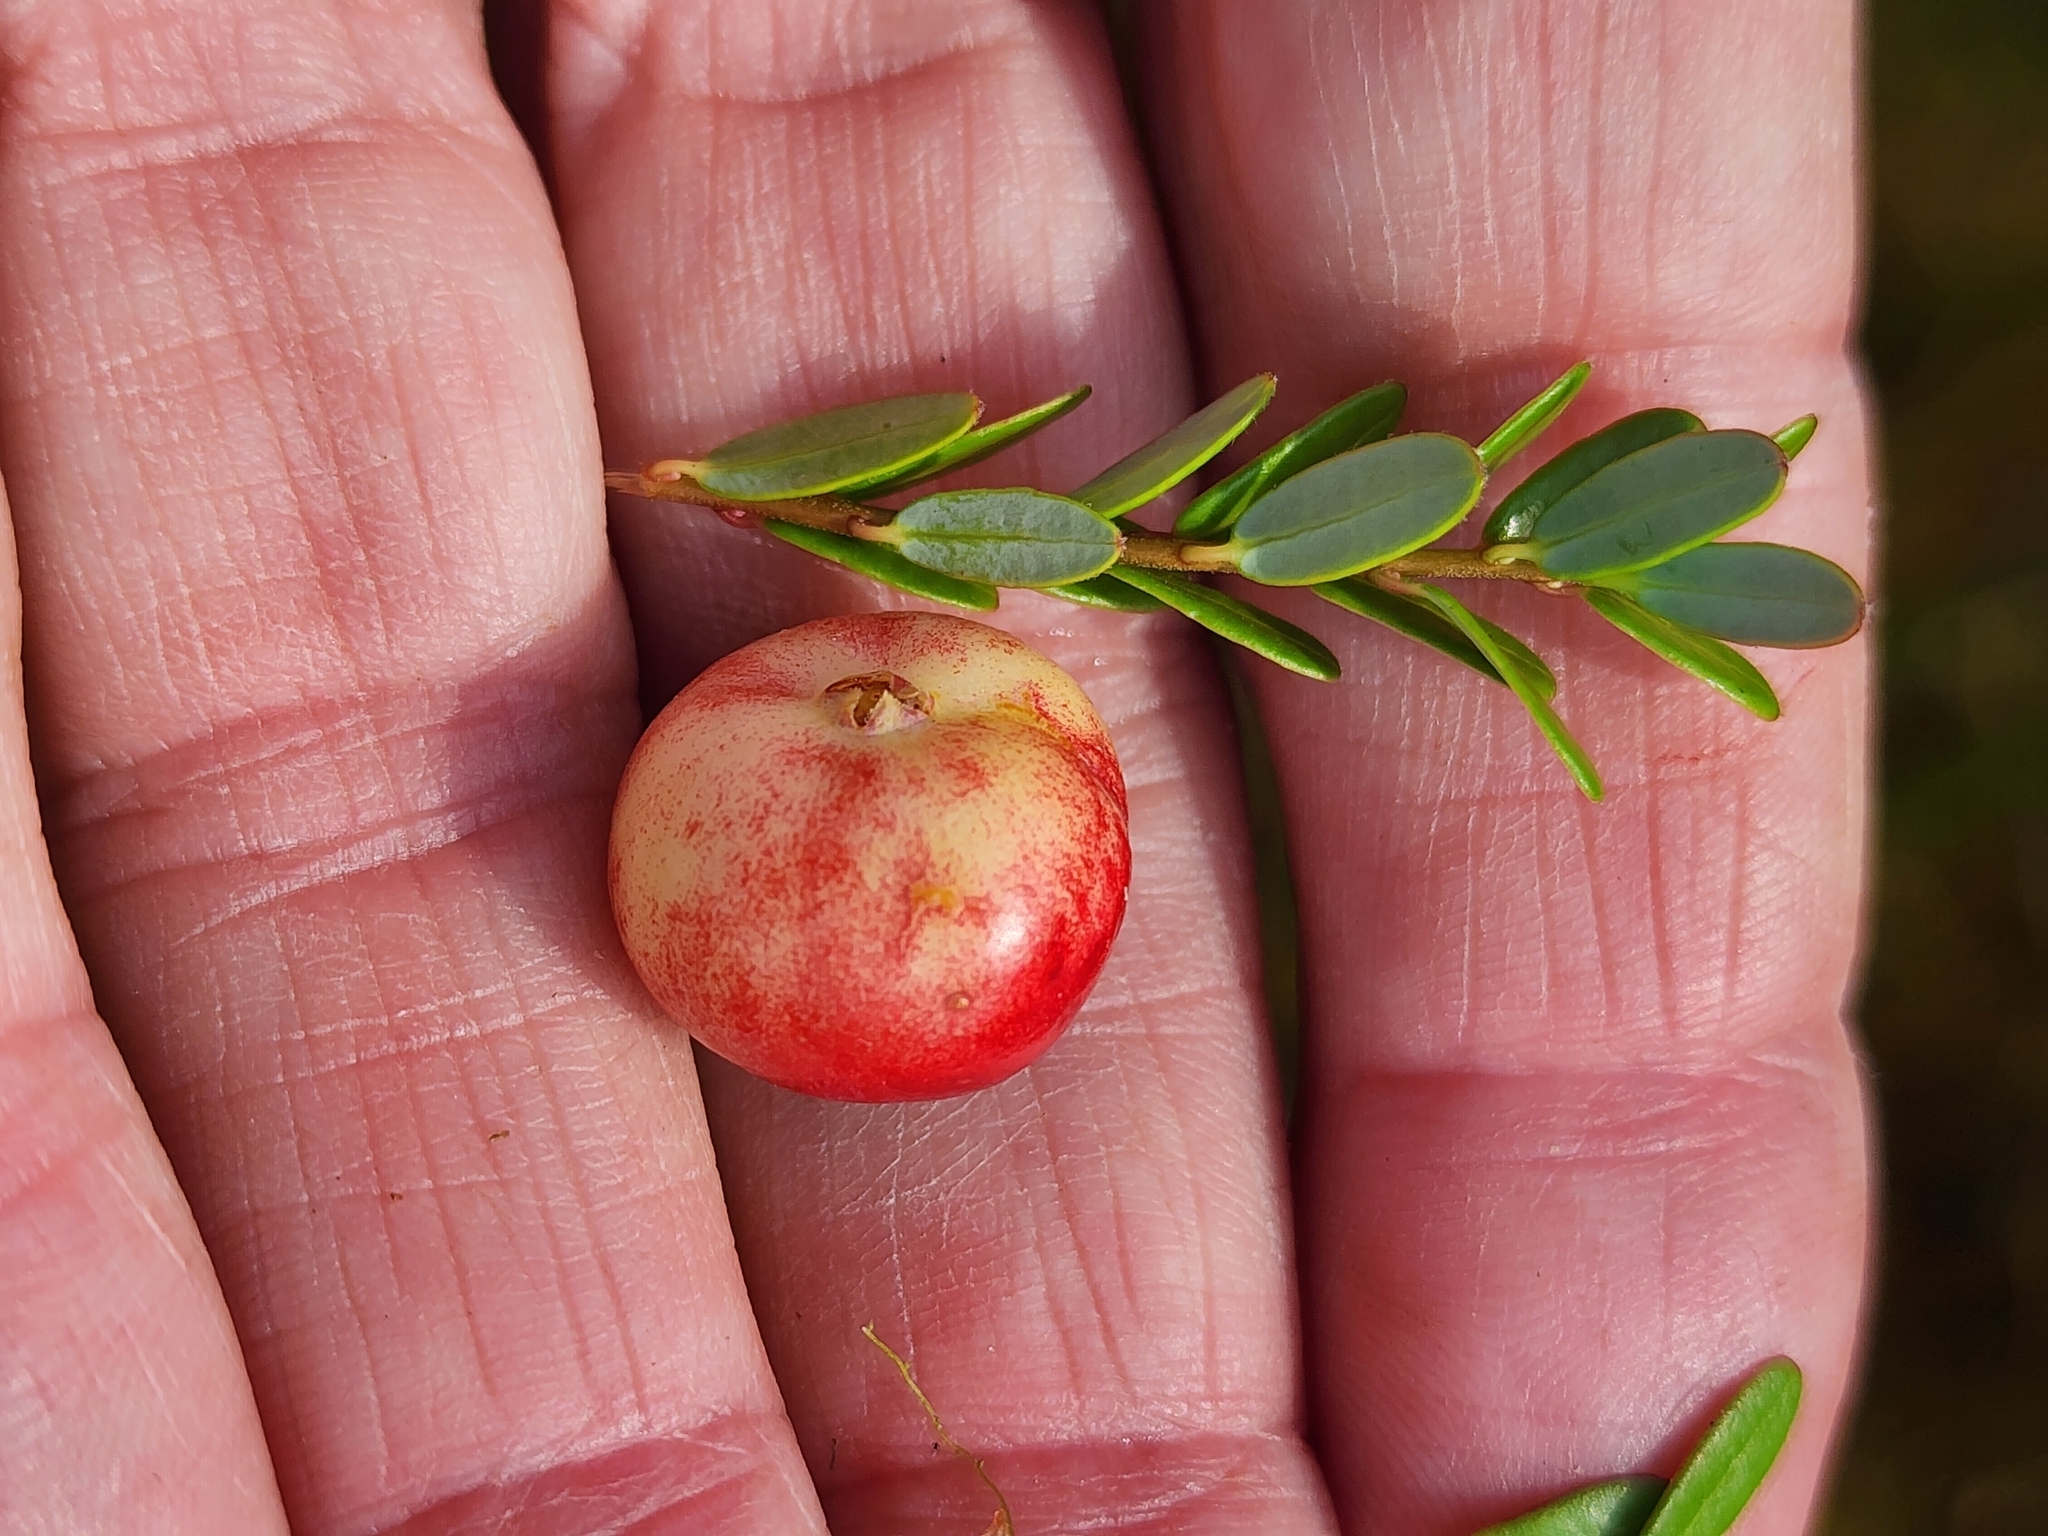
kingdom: Plantae
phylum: Tracheophyta
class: Magnoliopsida
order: Ericales
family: Ericaceae
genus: Vaccinium
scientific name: Vaccinium macrocarpon
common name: American cranberry
